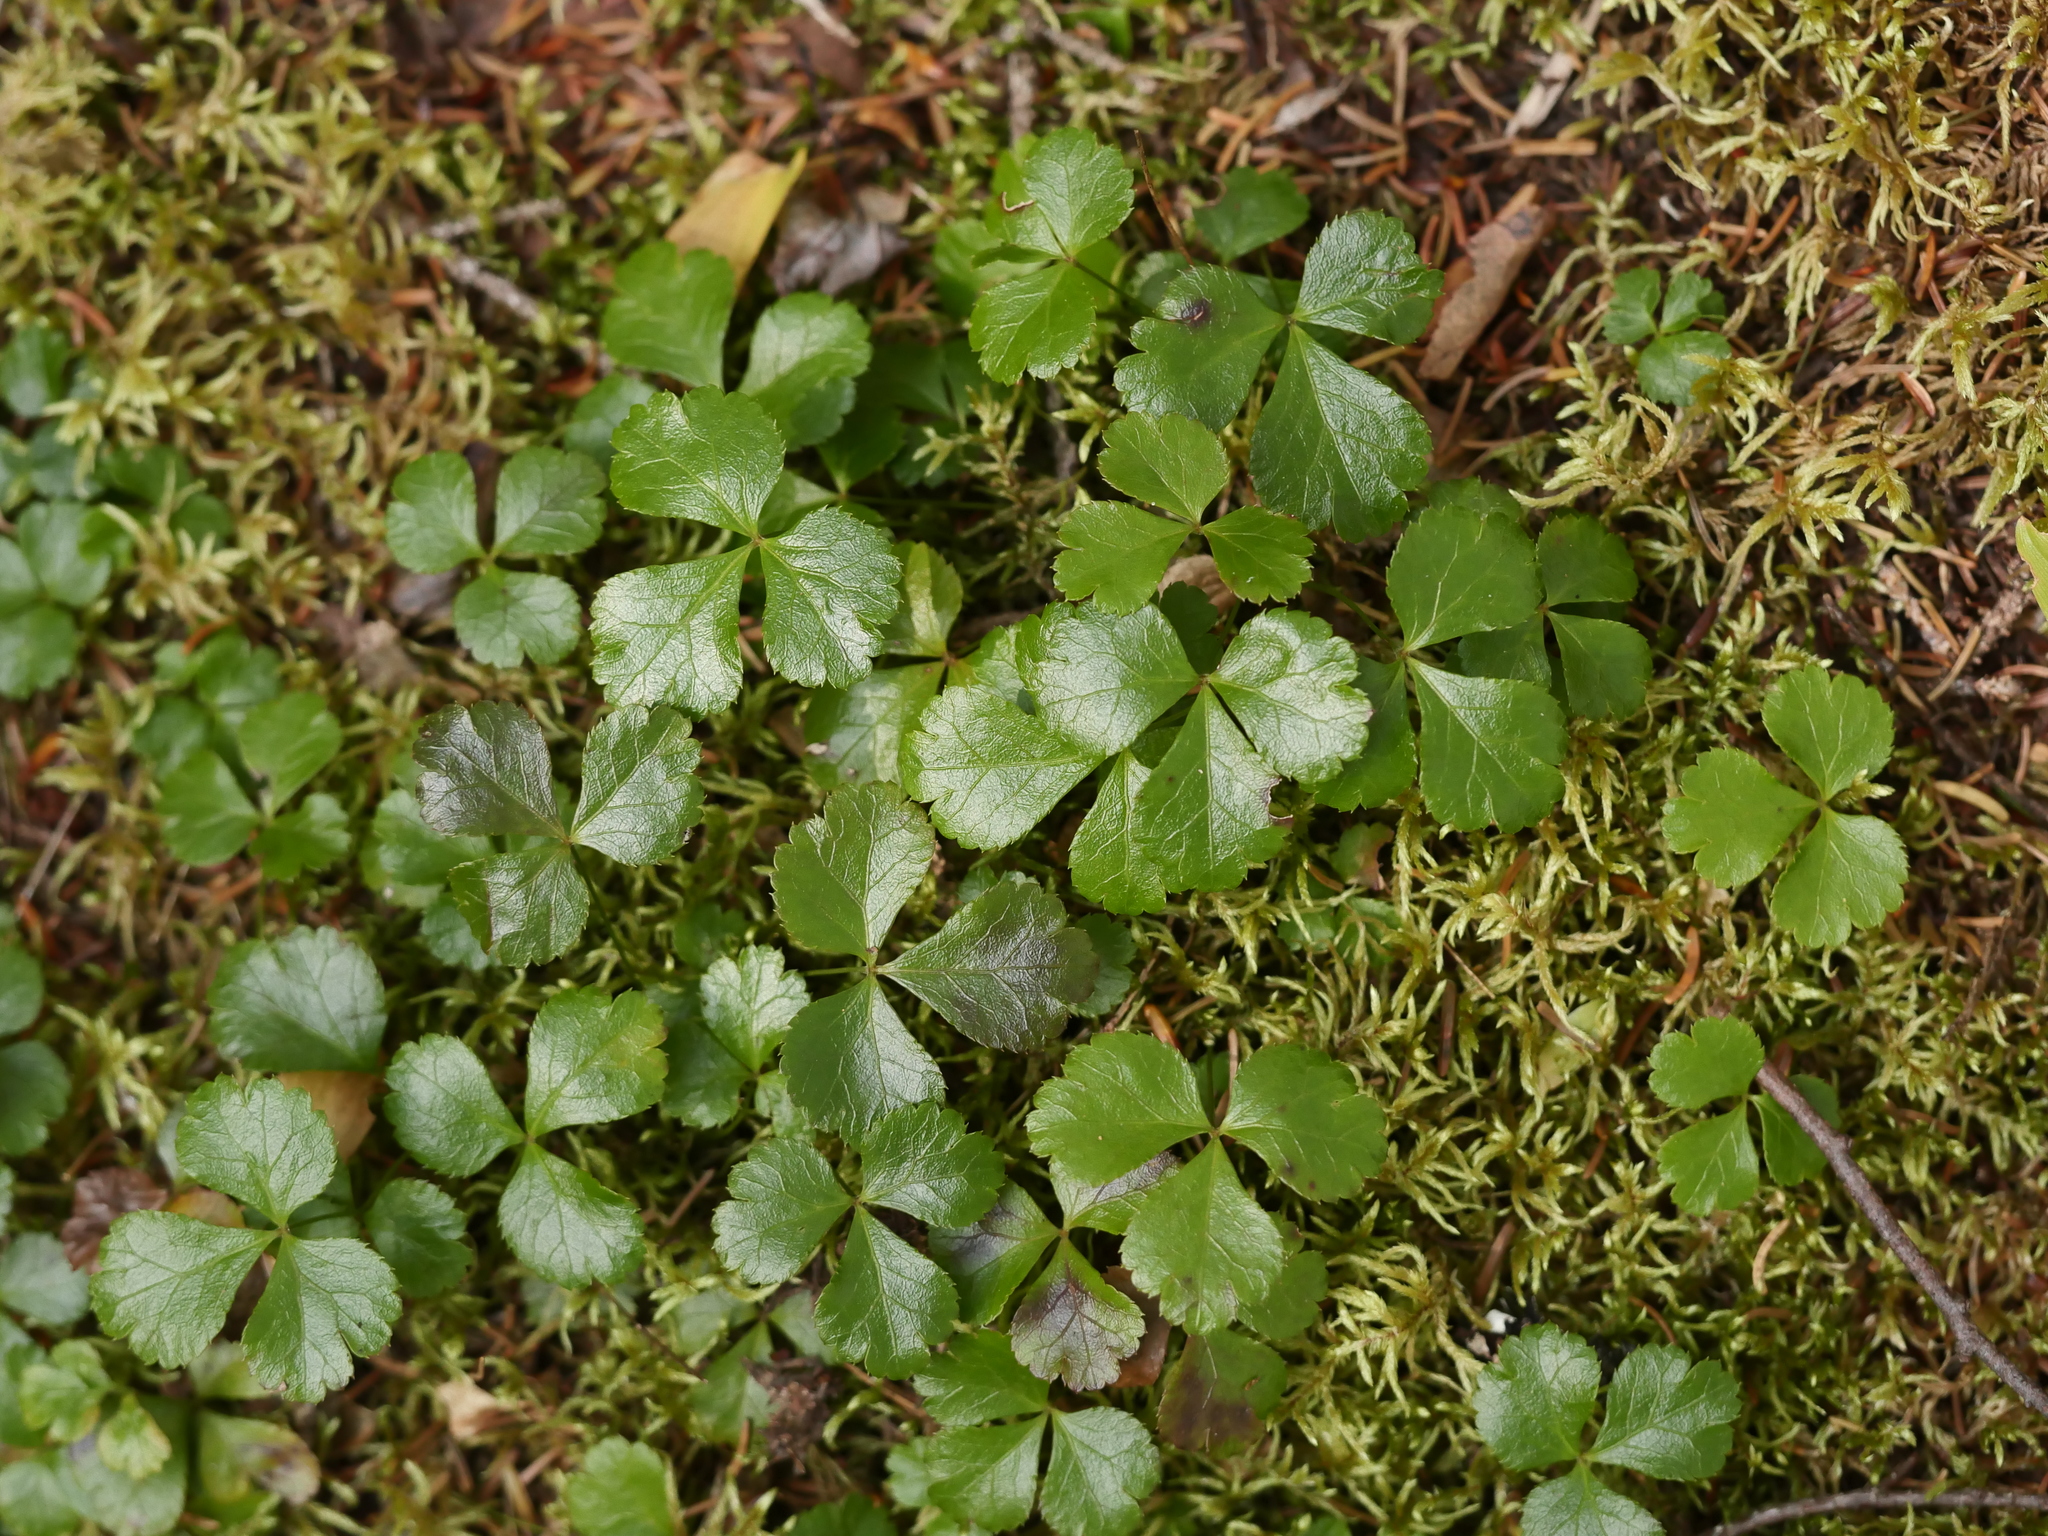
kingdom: Plantae
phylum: Tracheophyta
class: Magnoliopsida
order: Ranunculales
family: Ranunculaceae
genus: Coptis
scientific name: Coptis trifolia
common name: Canker-root
